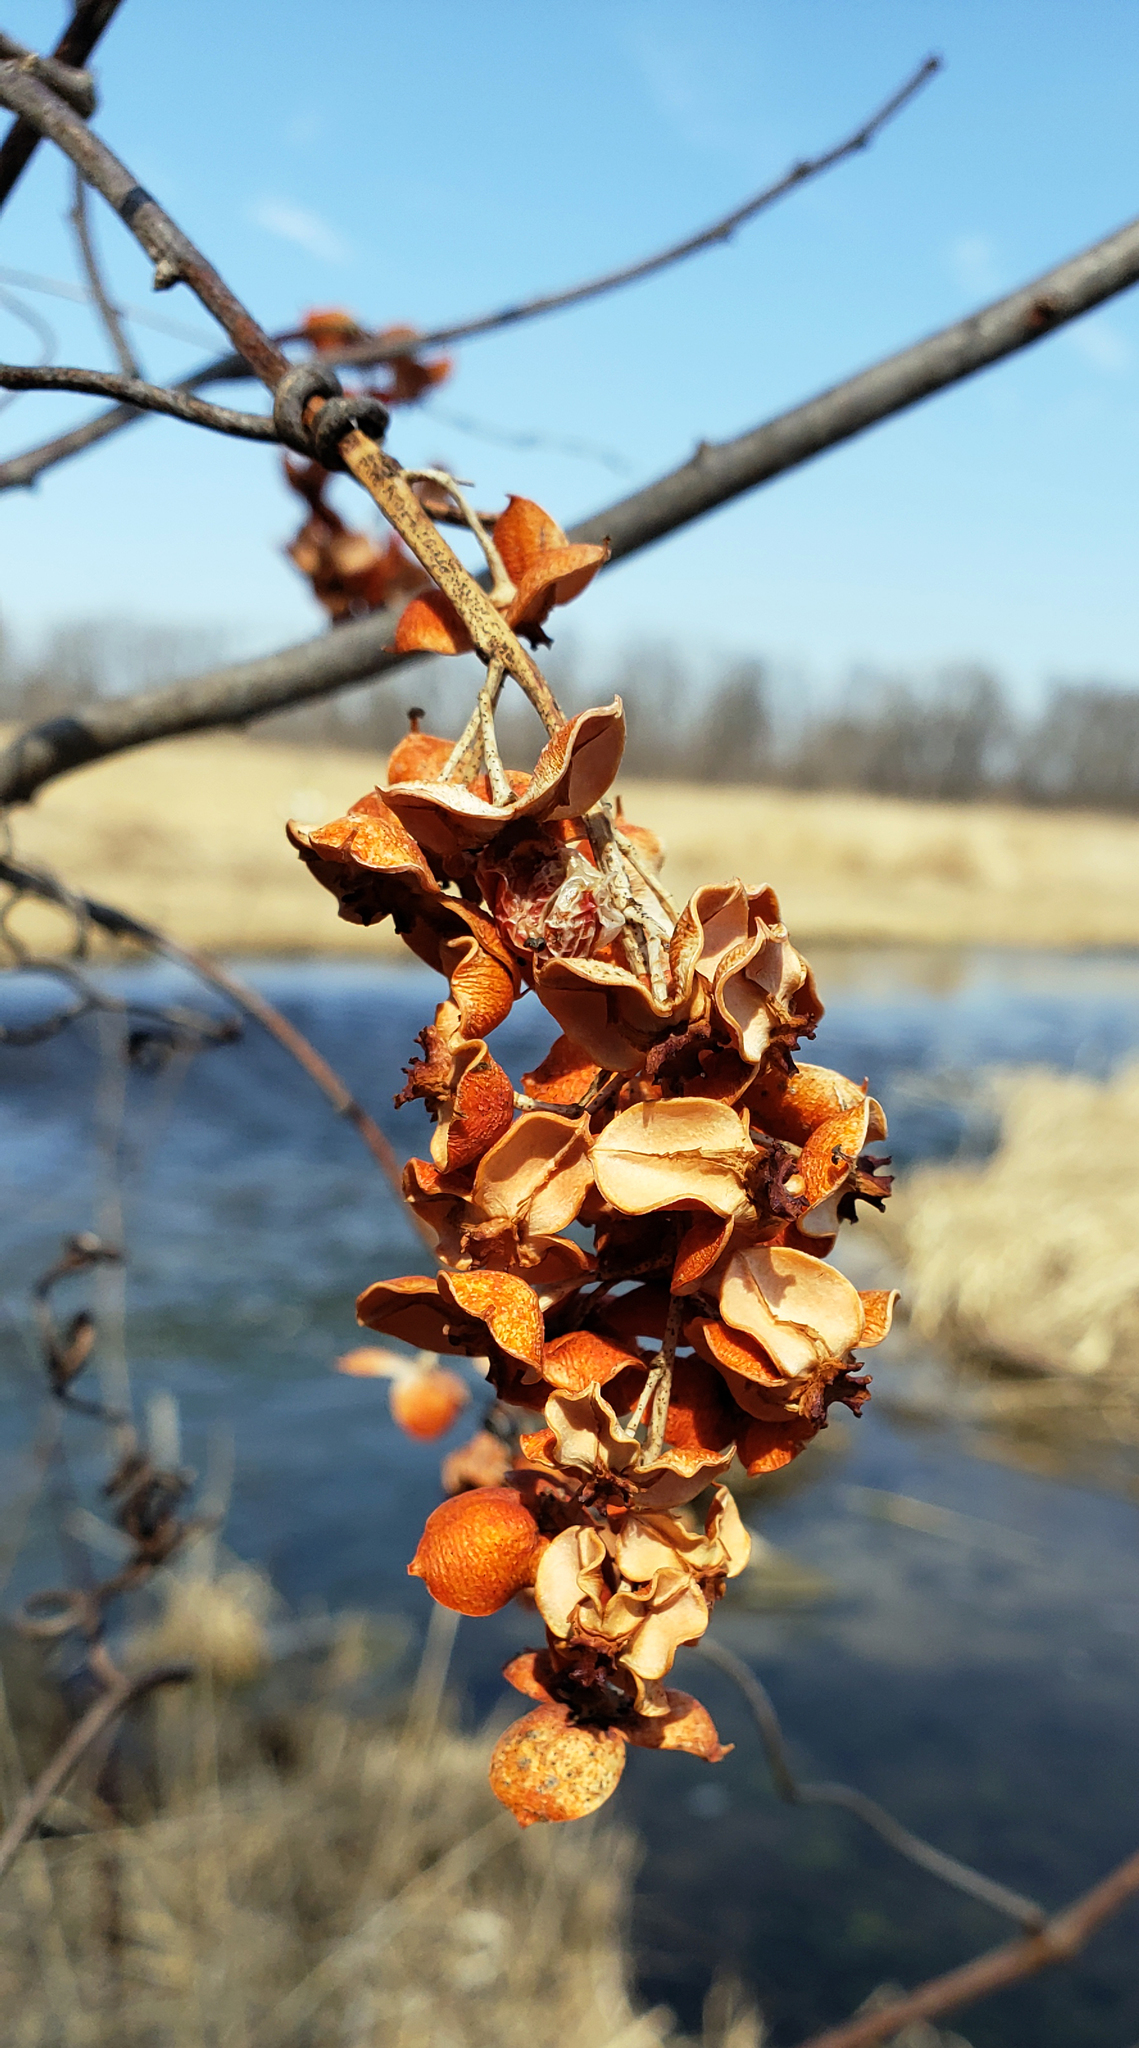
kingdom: Plantae
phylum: Tracheophyta
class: Magnoliopsida
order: Celastrales
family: Celastraceae
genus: Celastrus
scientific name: Celastrus scandens
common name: American bittersweet
